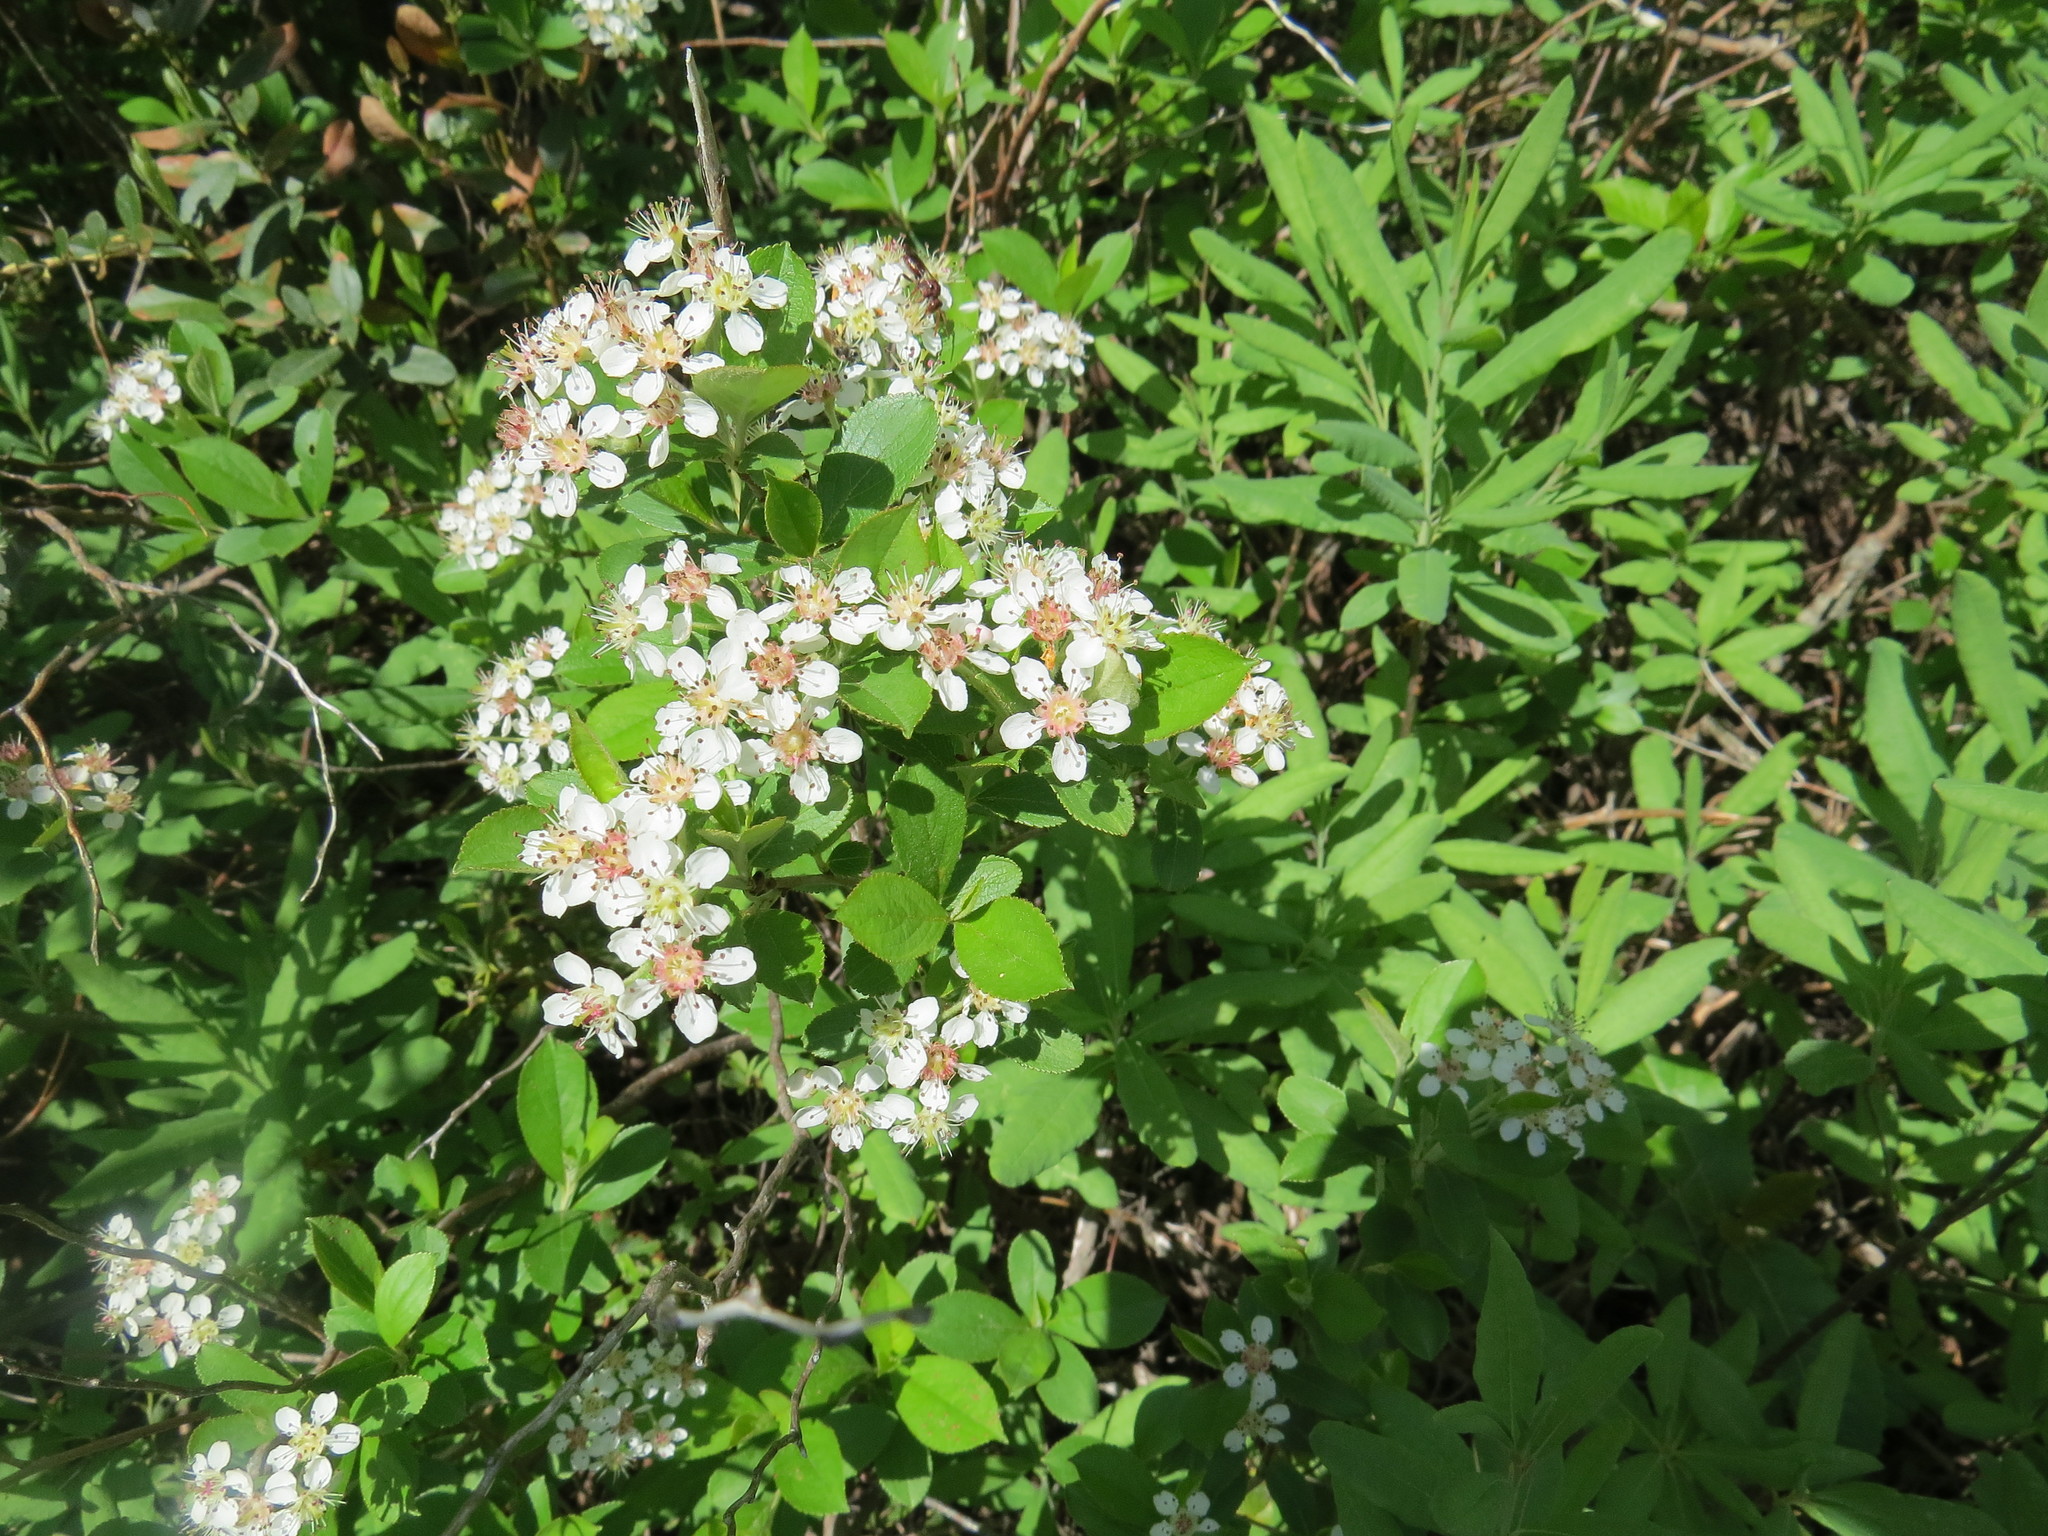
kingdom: Plantae
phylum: Tracheophyta
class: Magnoliopsida
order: Ericales
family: Ericaceae
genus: Rhododendron
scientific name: Rhododendron groenlandicum
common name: Bog labrador tea
